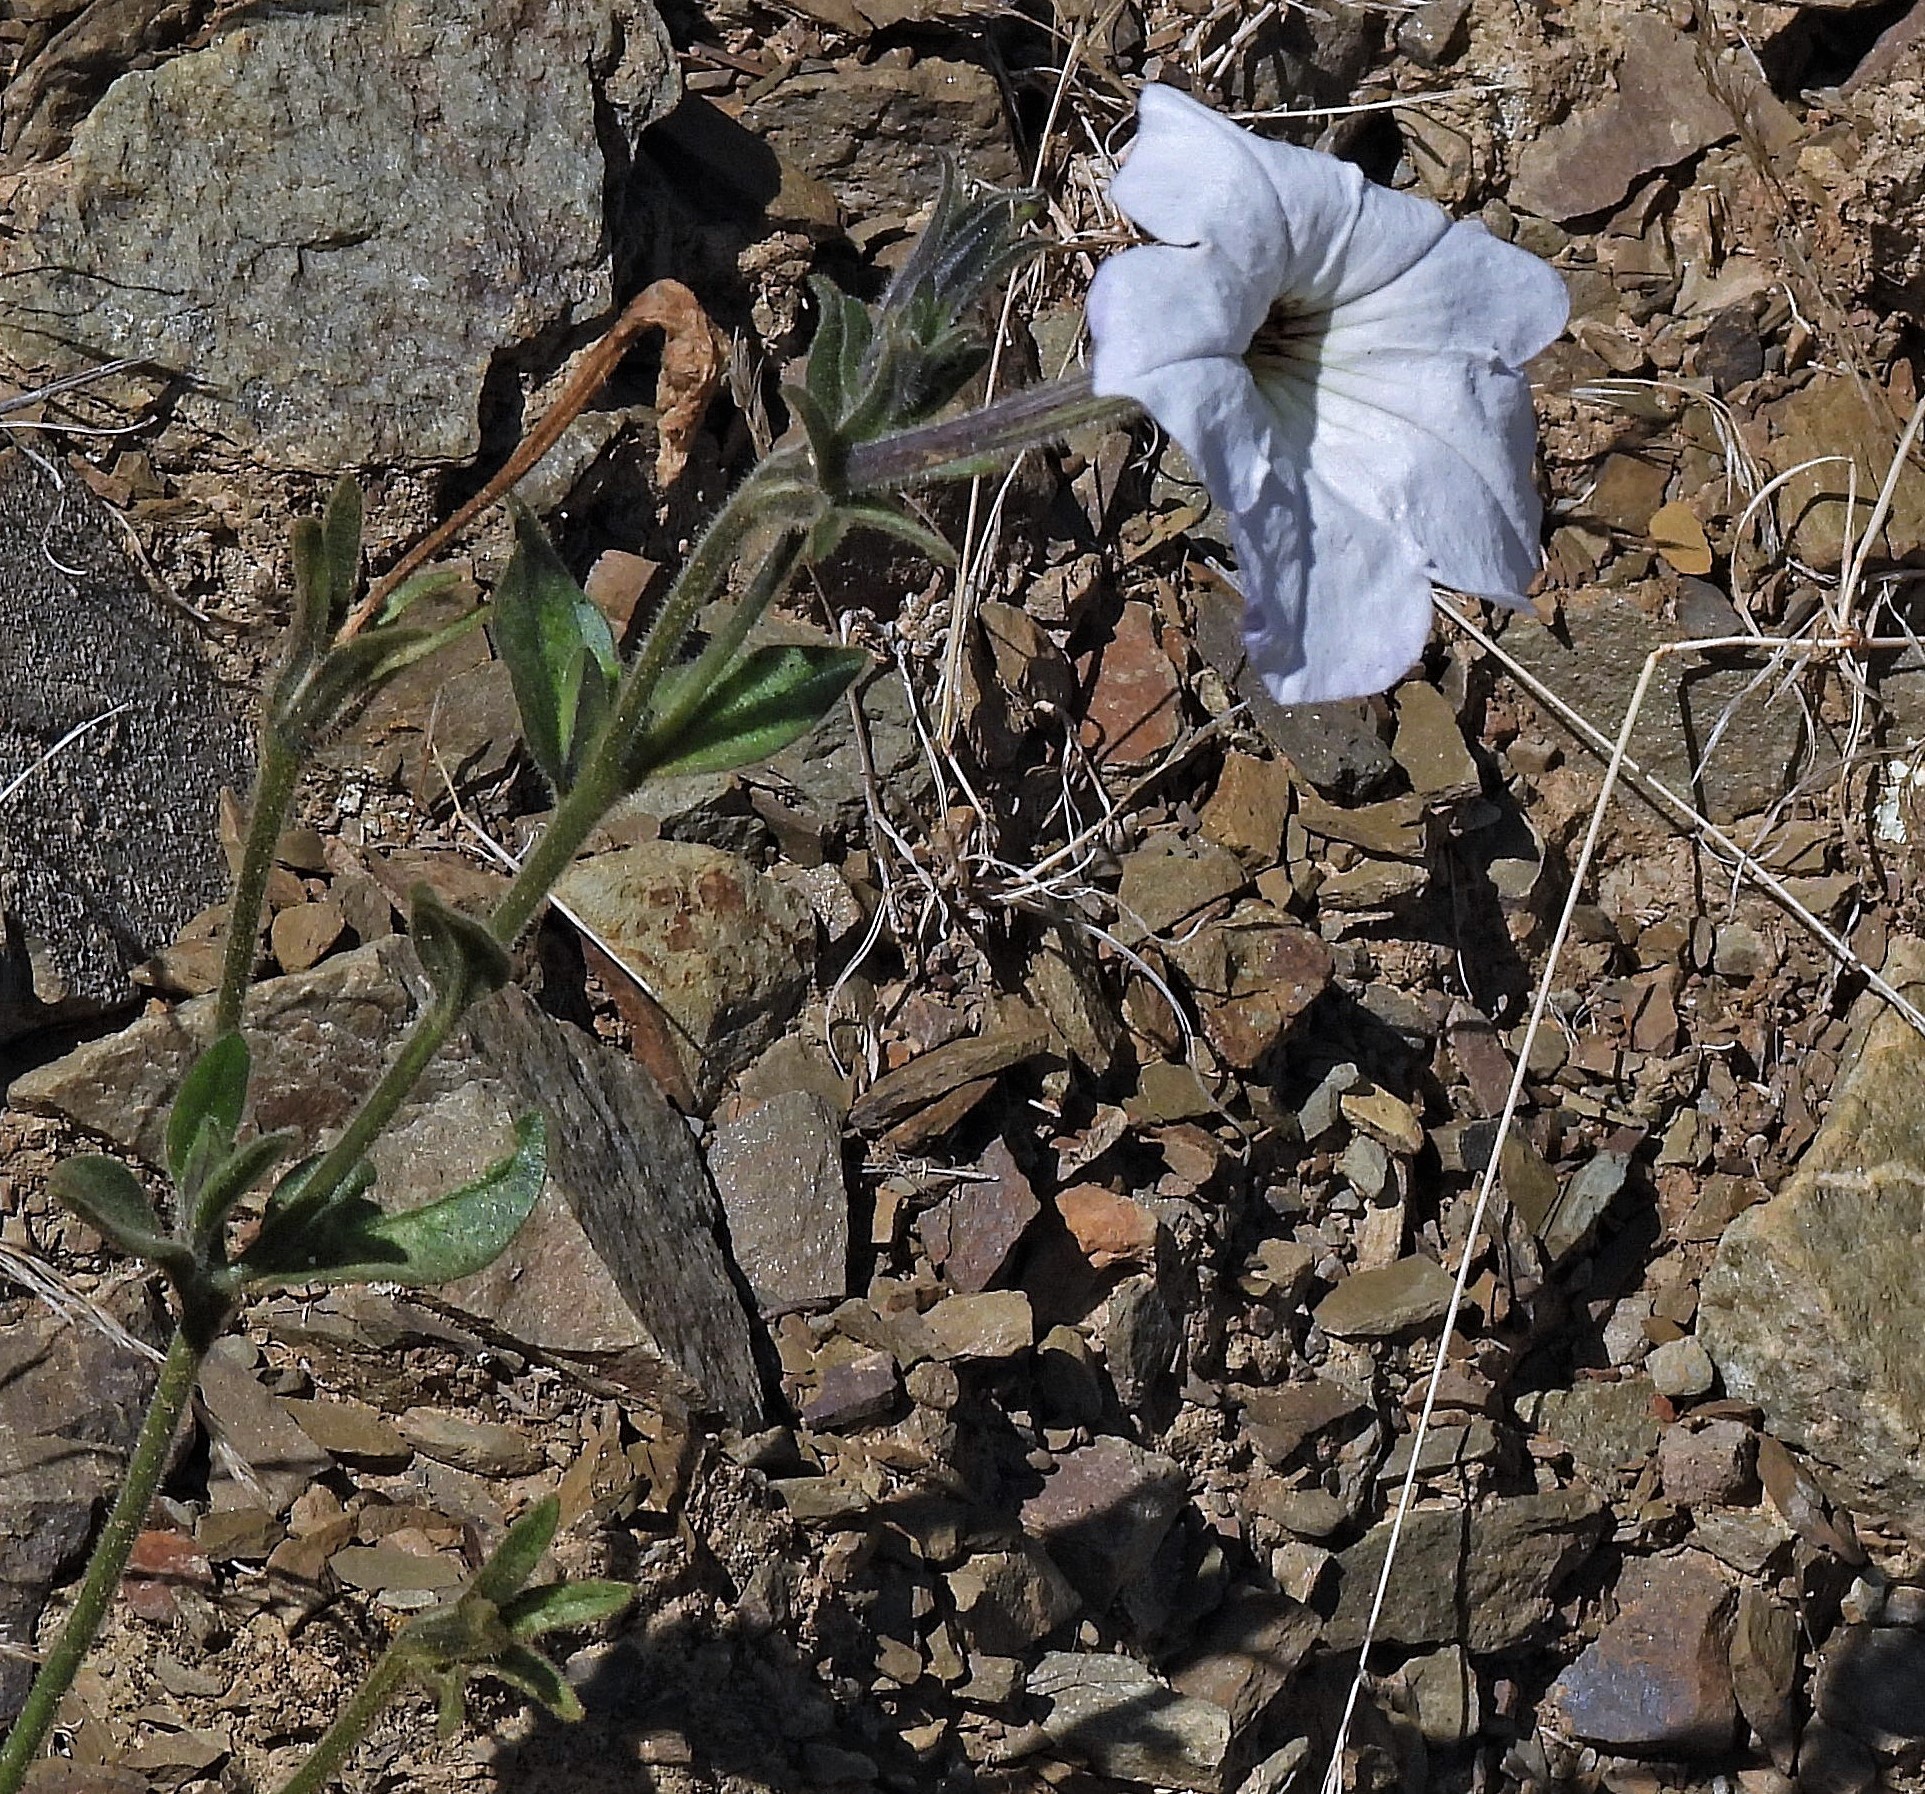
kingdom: Plantae
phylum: Tracheophyta
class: Magnoliopsida
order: Solanales
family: Solanaceae
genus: Petunia
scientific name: Petunia axillaris
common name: Large white petunia
